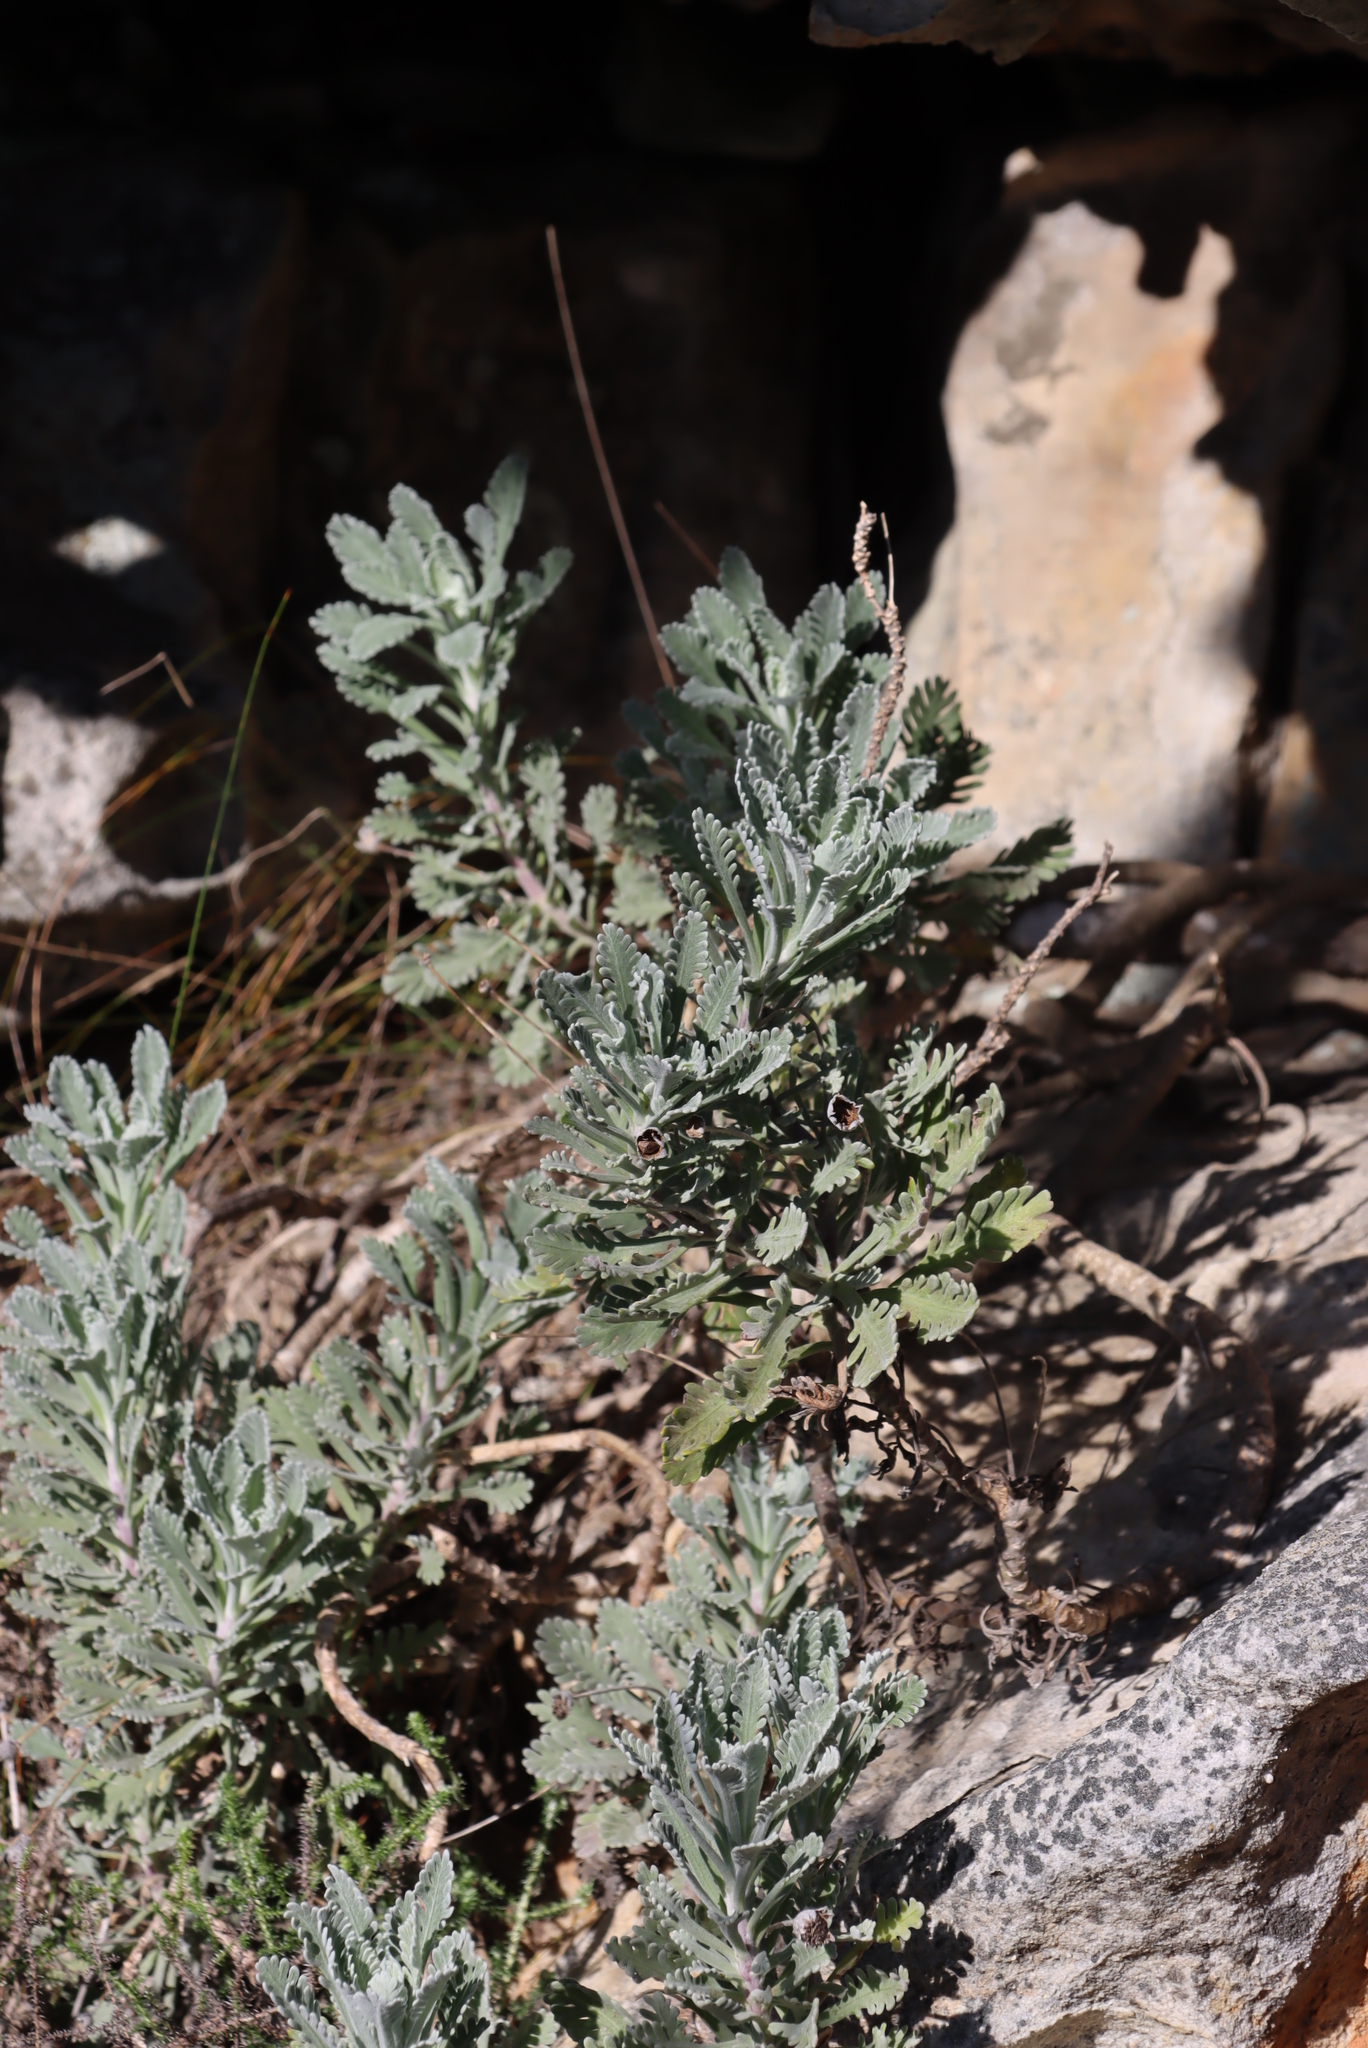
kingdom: Plantae
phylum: Tracheophyta
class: Magnoliopsida
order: Asterales
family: Asteraceae
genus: Euryops
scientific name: Euryops pectinatus
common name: Gray-leaf euryops
